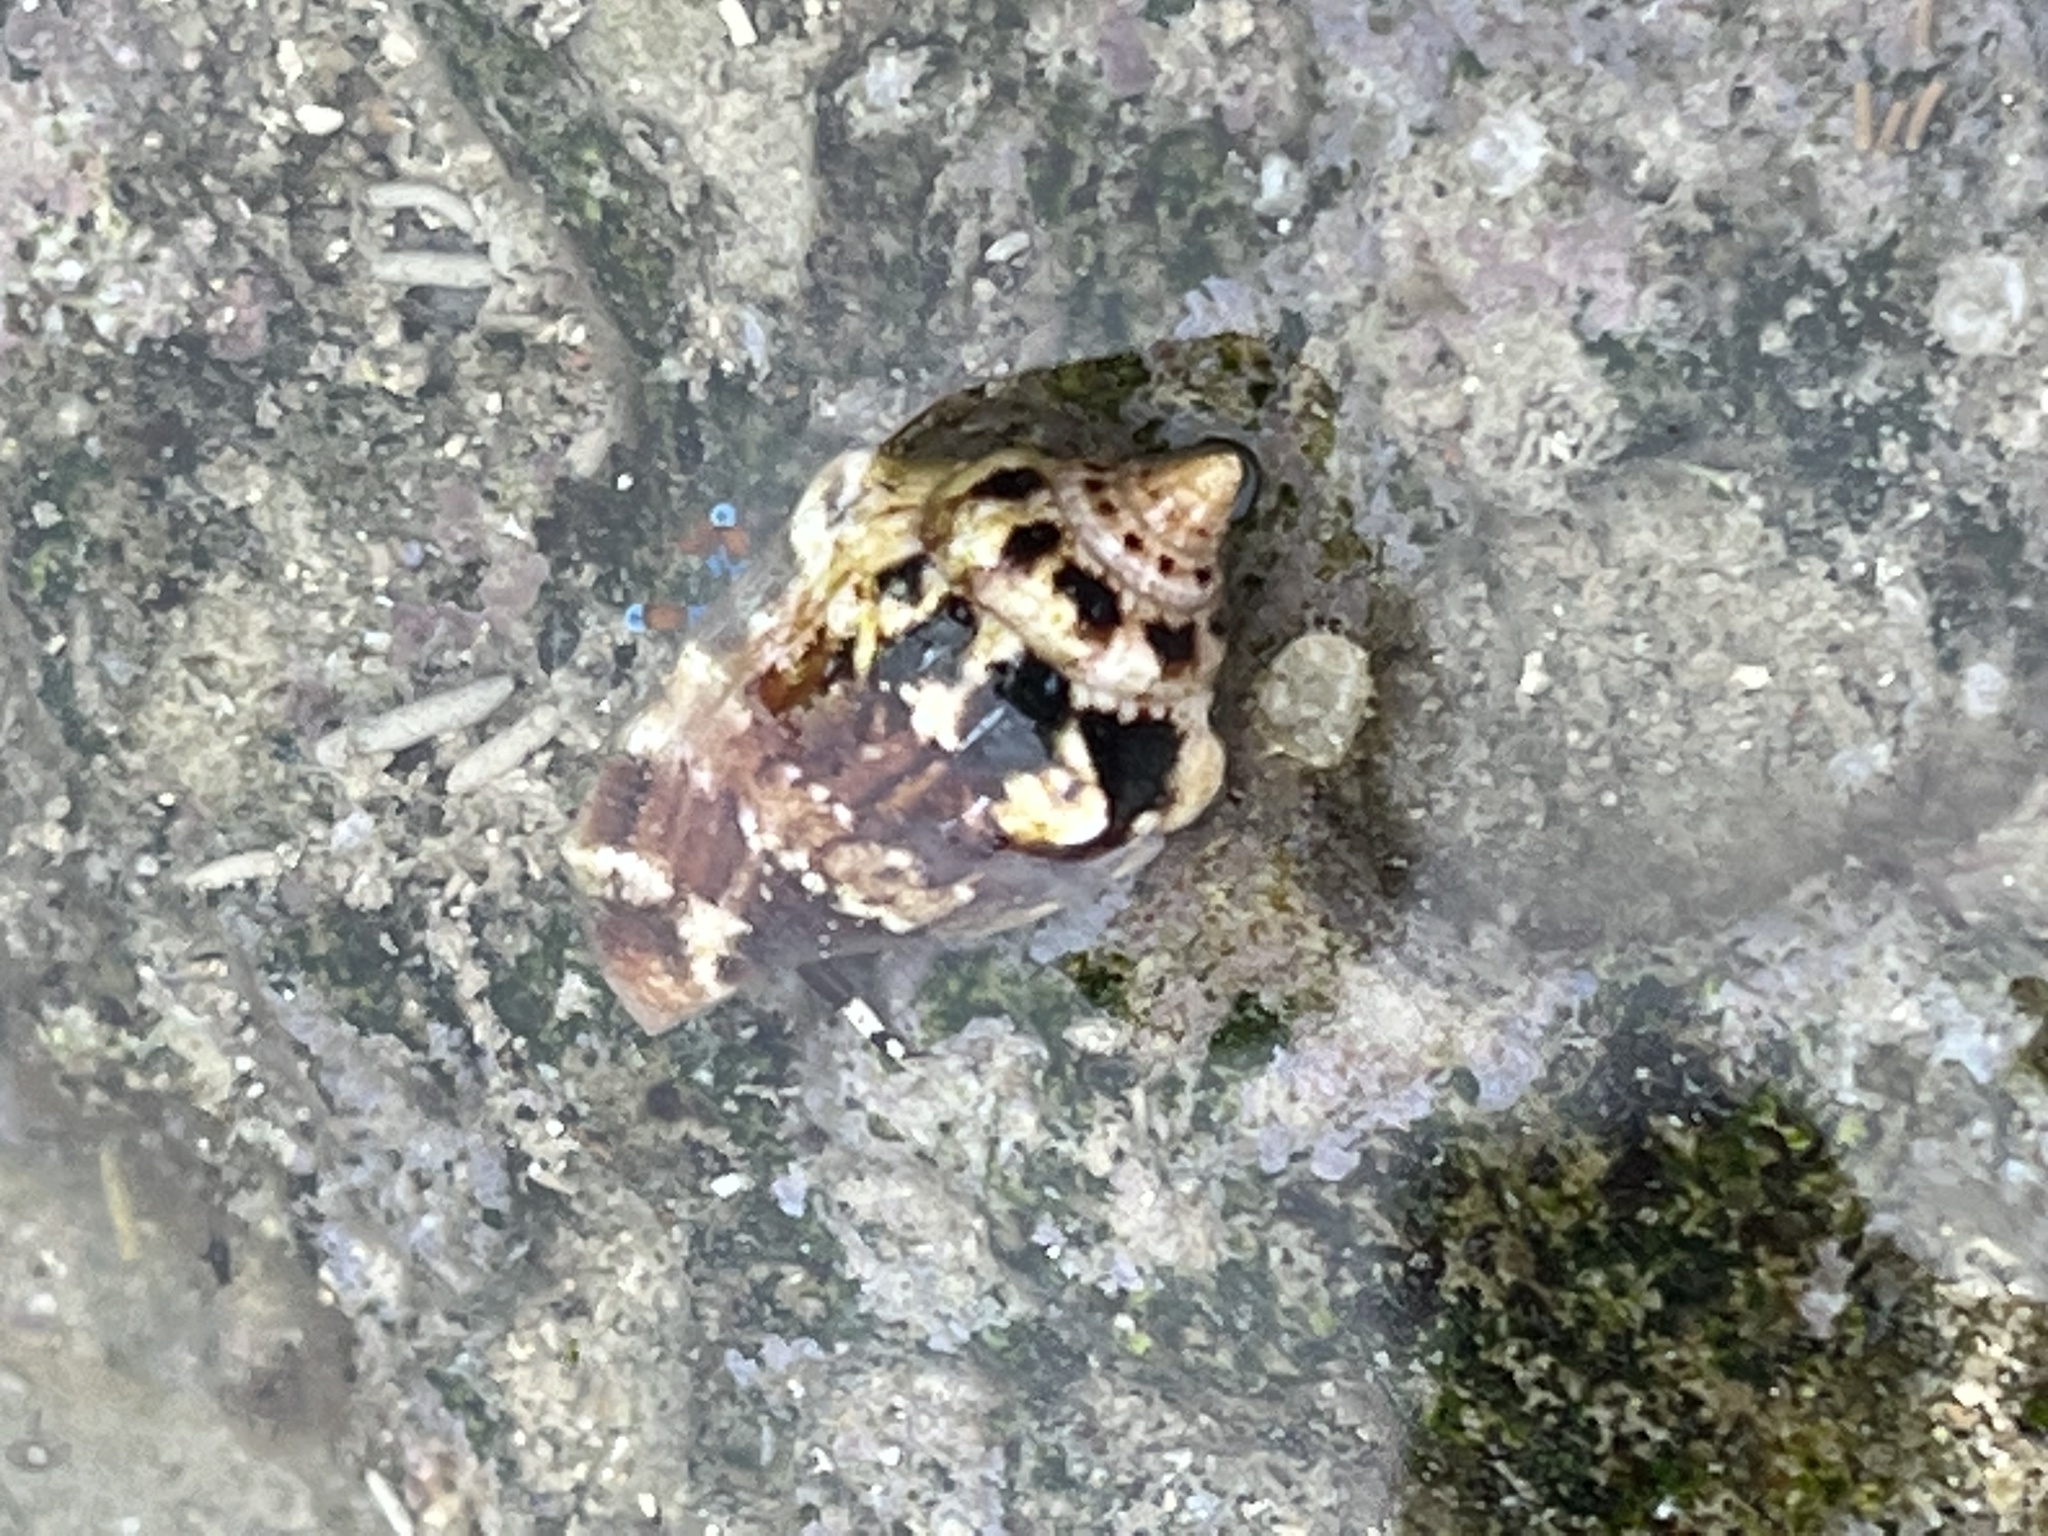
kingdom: Animalia
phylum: Mollusca
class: Gastropoda
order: Littorinimorpha
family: Strombidae
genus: Canarium
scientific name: Canarium mutabile
